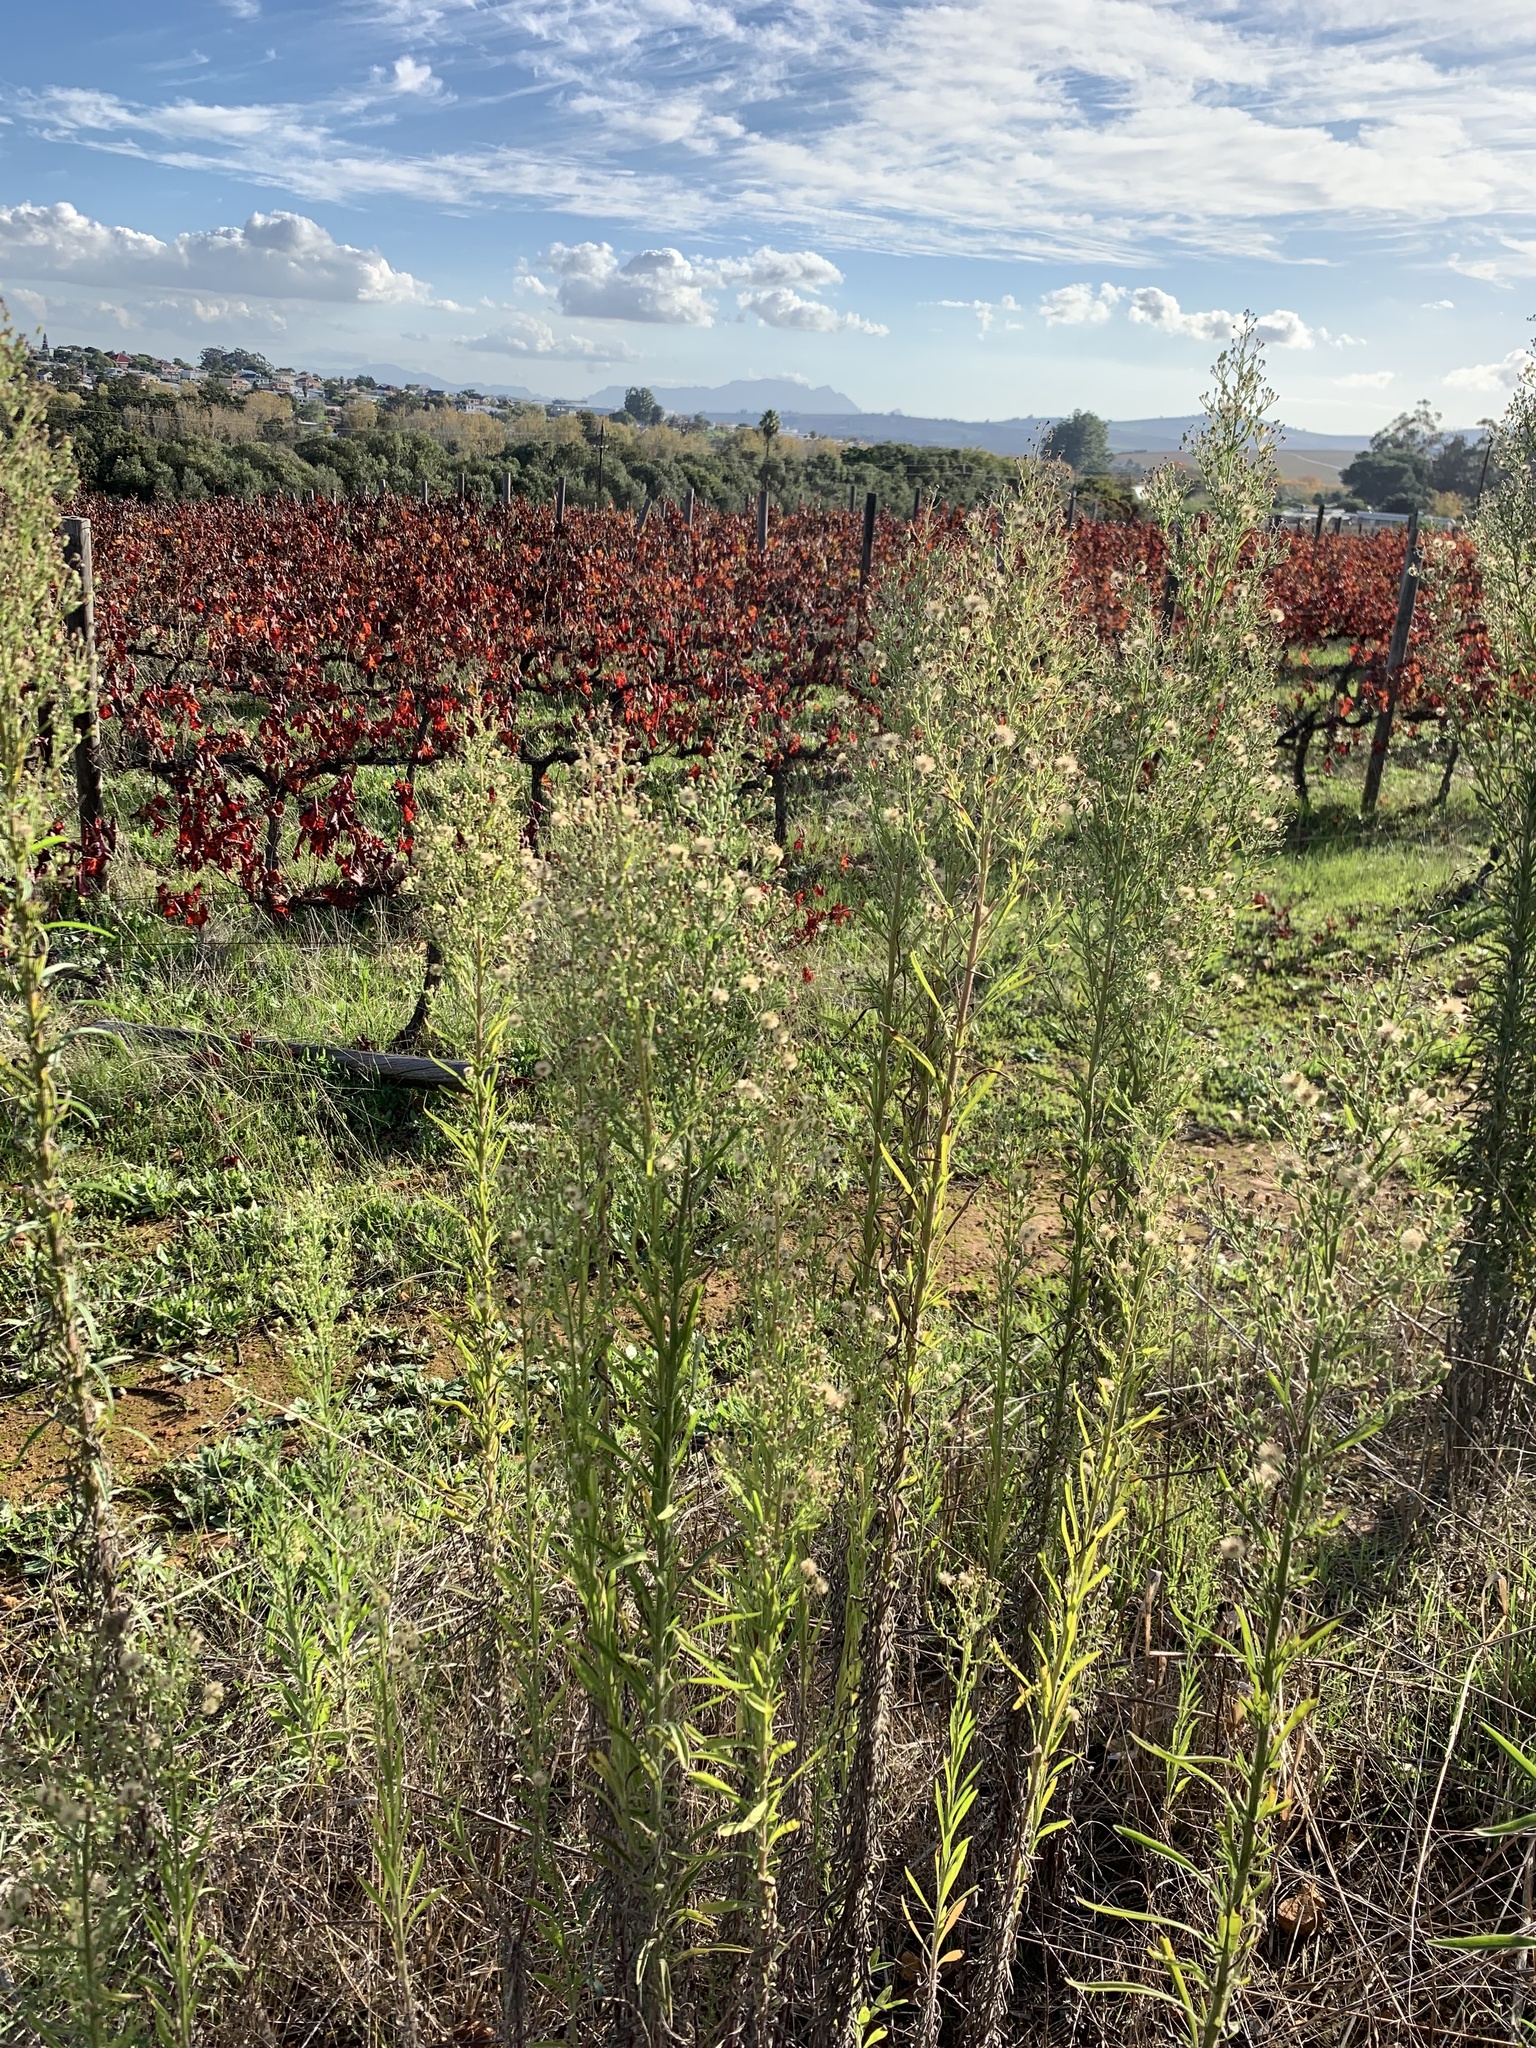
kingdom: Plantae
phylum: Tracheophyta
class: Magnoliopsida
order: Asterales
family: Asteraceae
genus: Erigeron
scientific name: Erigeron sumatrensis
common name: Daisy
